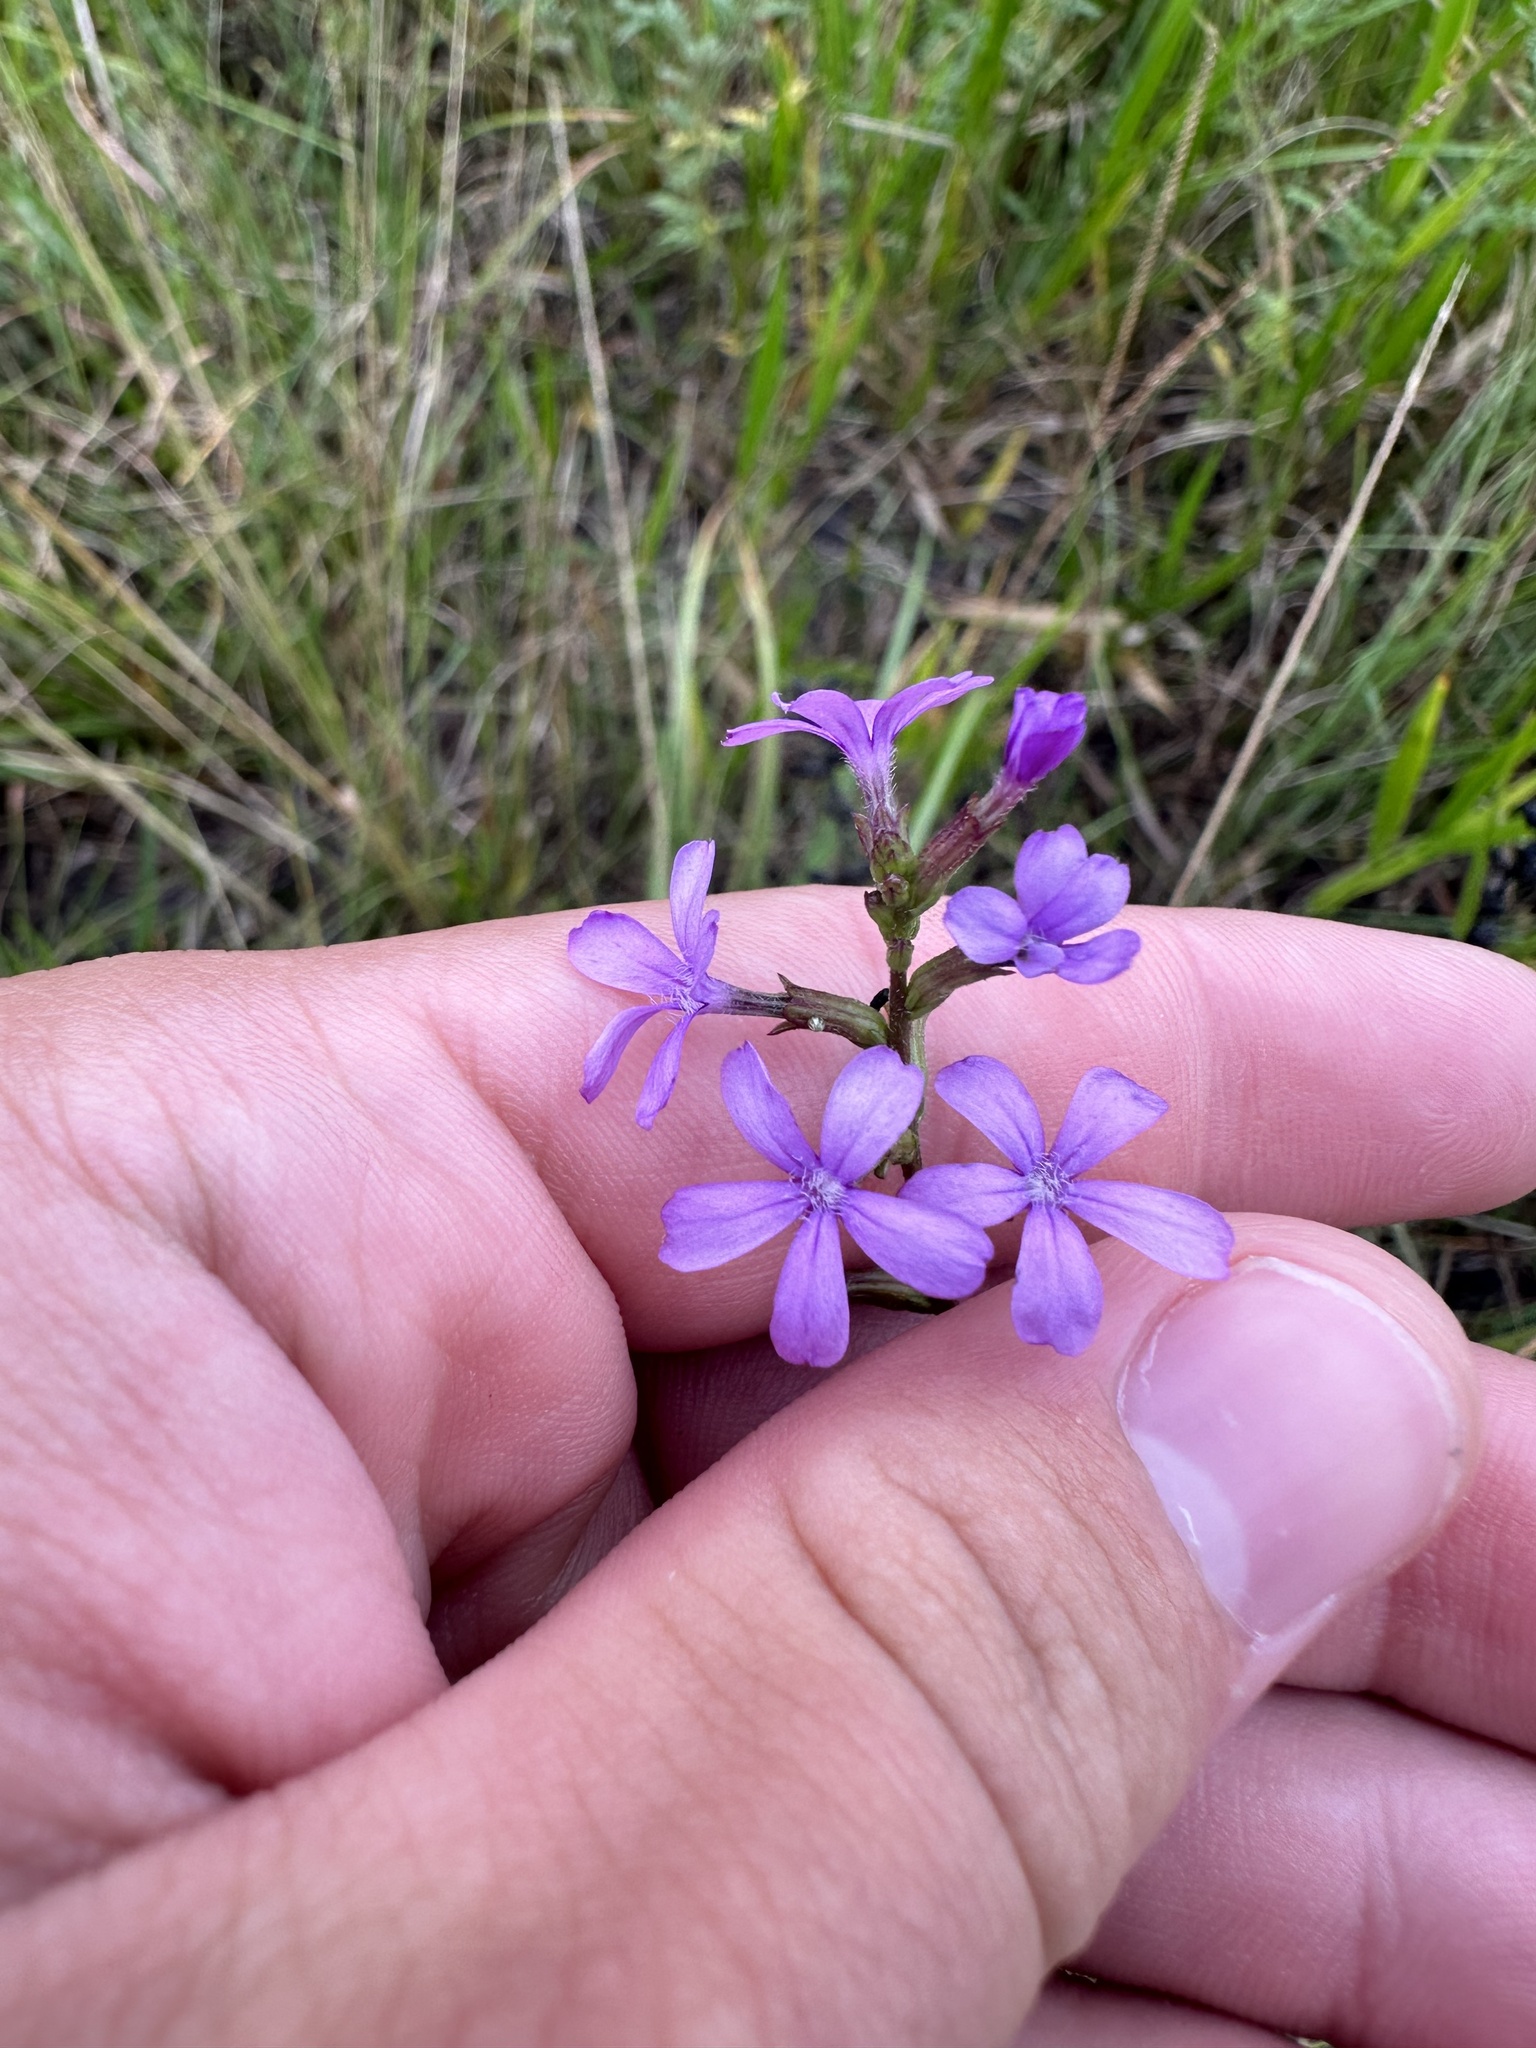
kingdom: Plantae
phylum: Tracheophyta
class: Magnoliopsida
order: Lamiales
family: Orobanchaceae
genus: Buchnera
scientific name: Buchnera floridana
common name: Florida bluehearts
